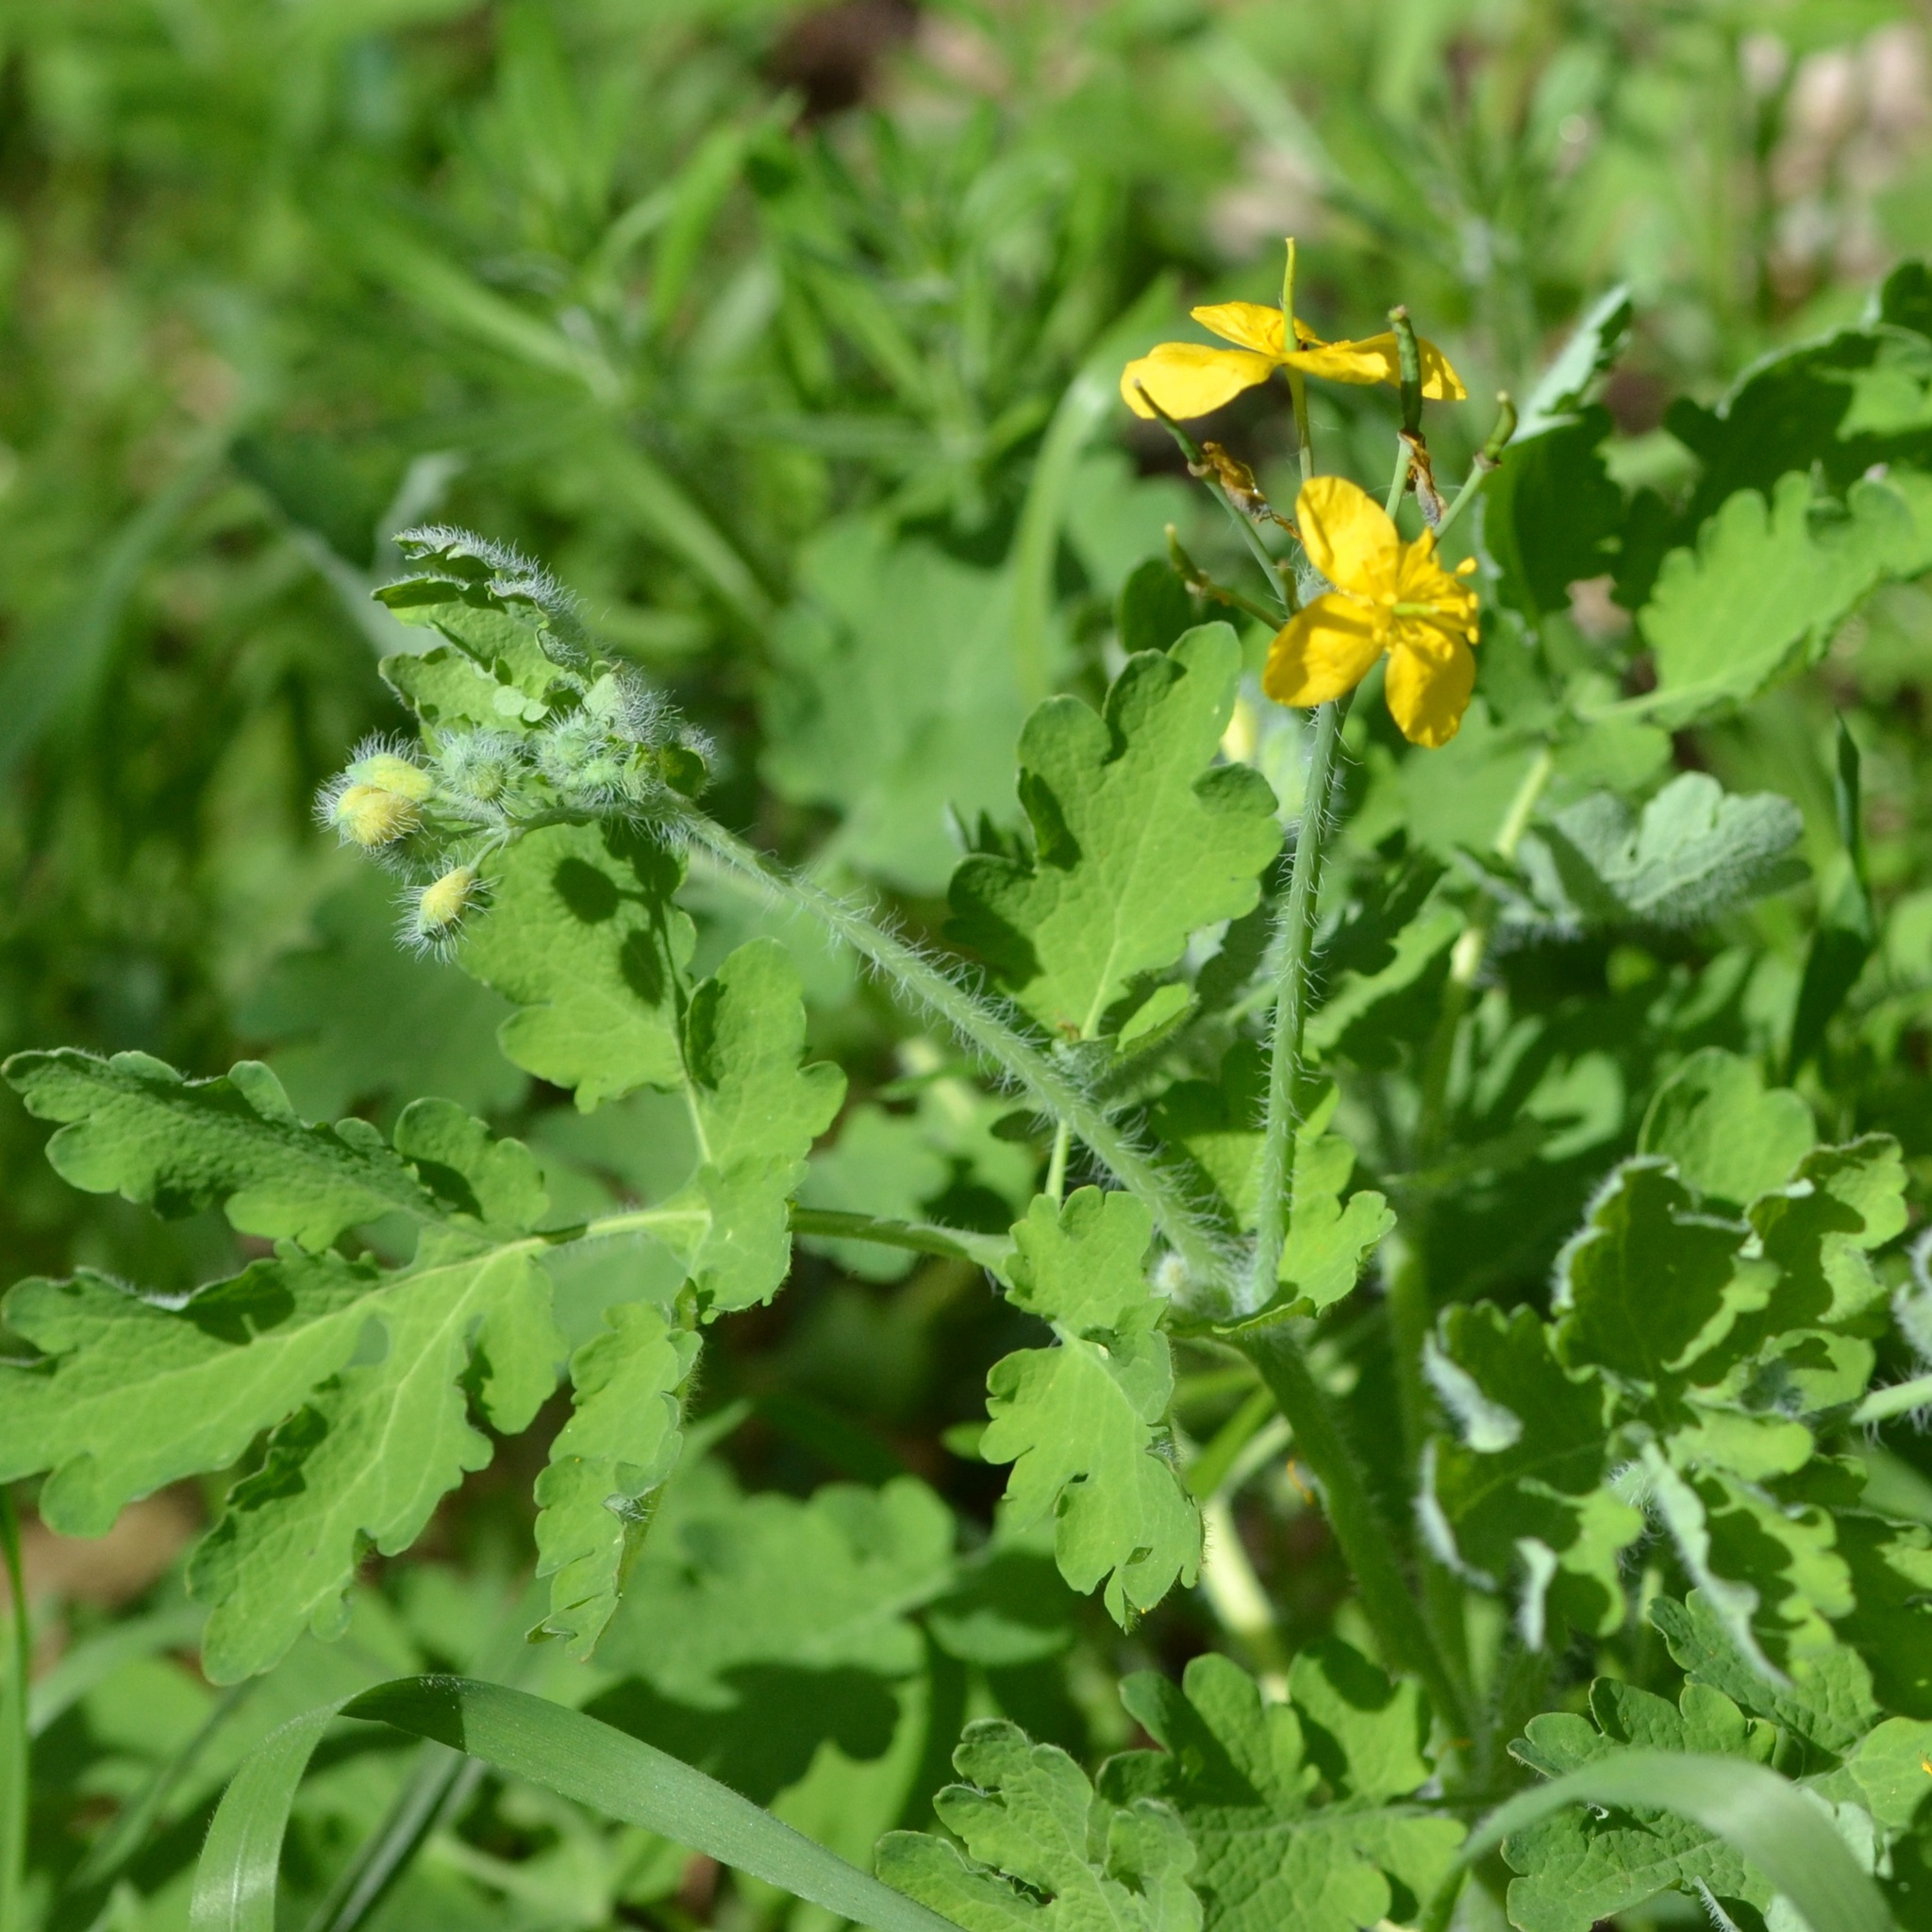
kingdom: Plantae
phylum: Tracheophyta
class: Magnoliopsida
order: Ranunculales
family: Papaveraceae
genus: Chelidonium
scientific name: Chelidonium majus
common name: Greater celandine
